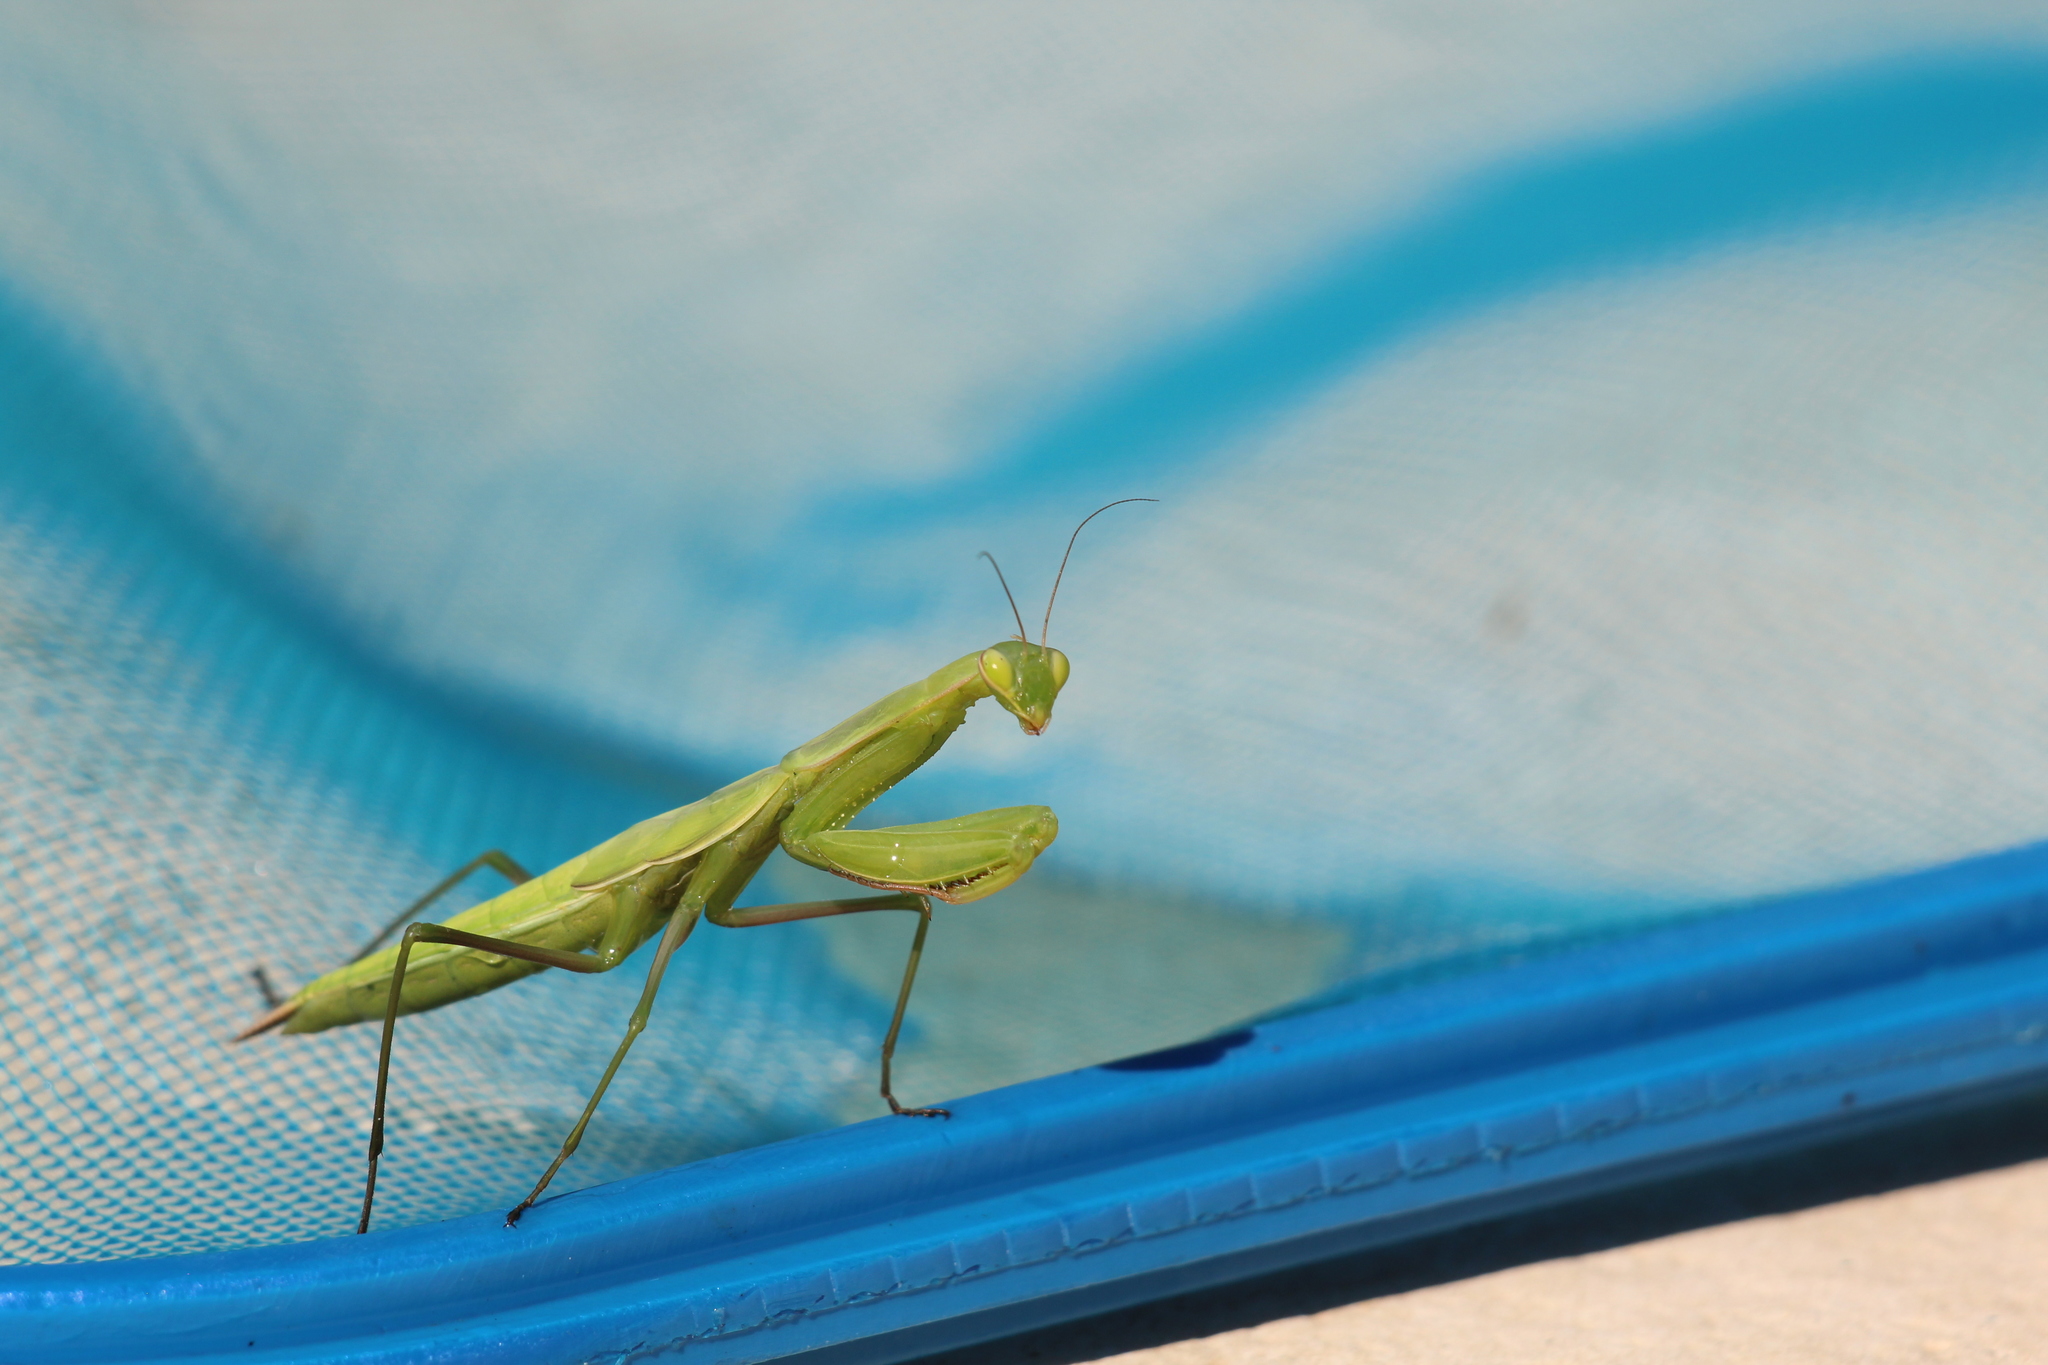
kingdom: Animalia
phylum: Arthropoda
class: Insecta
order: Mantodea
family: Mantidae
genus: Mantis
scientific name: Mantis religiosa
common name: Praying mantis
